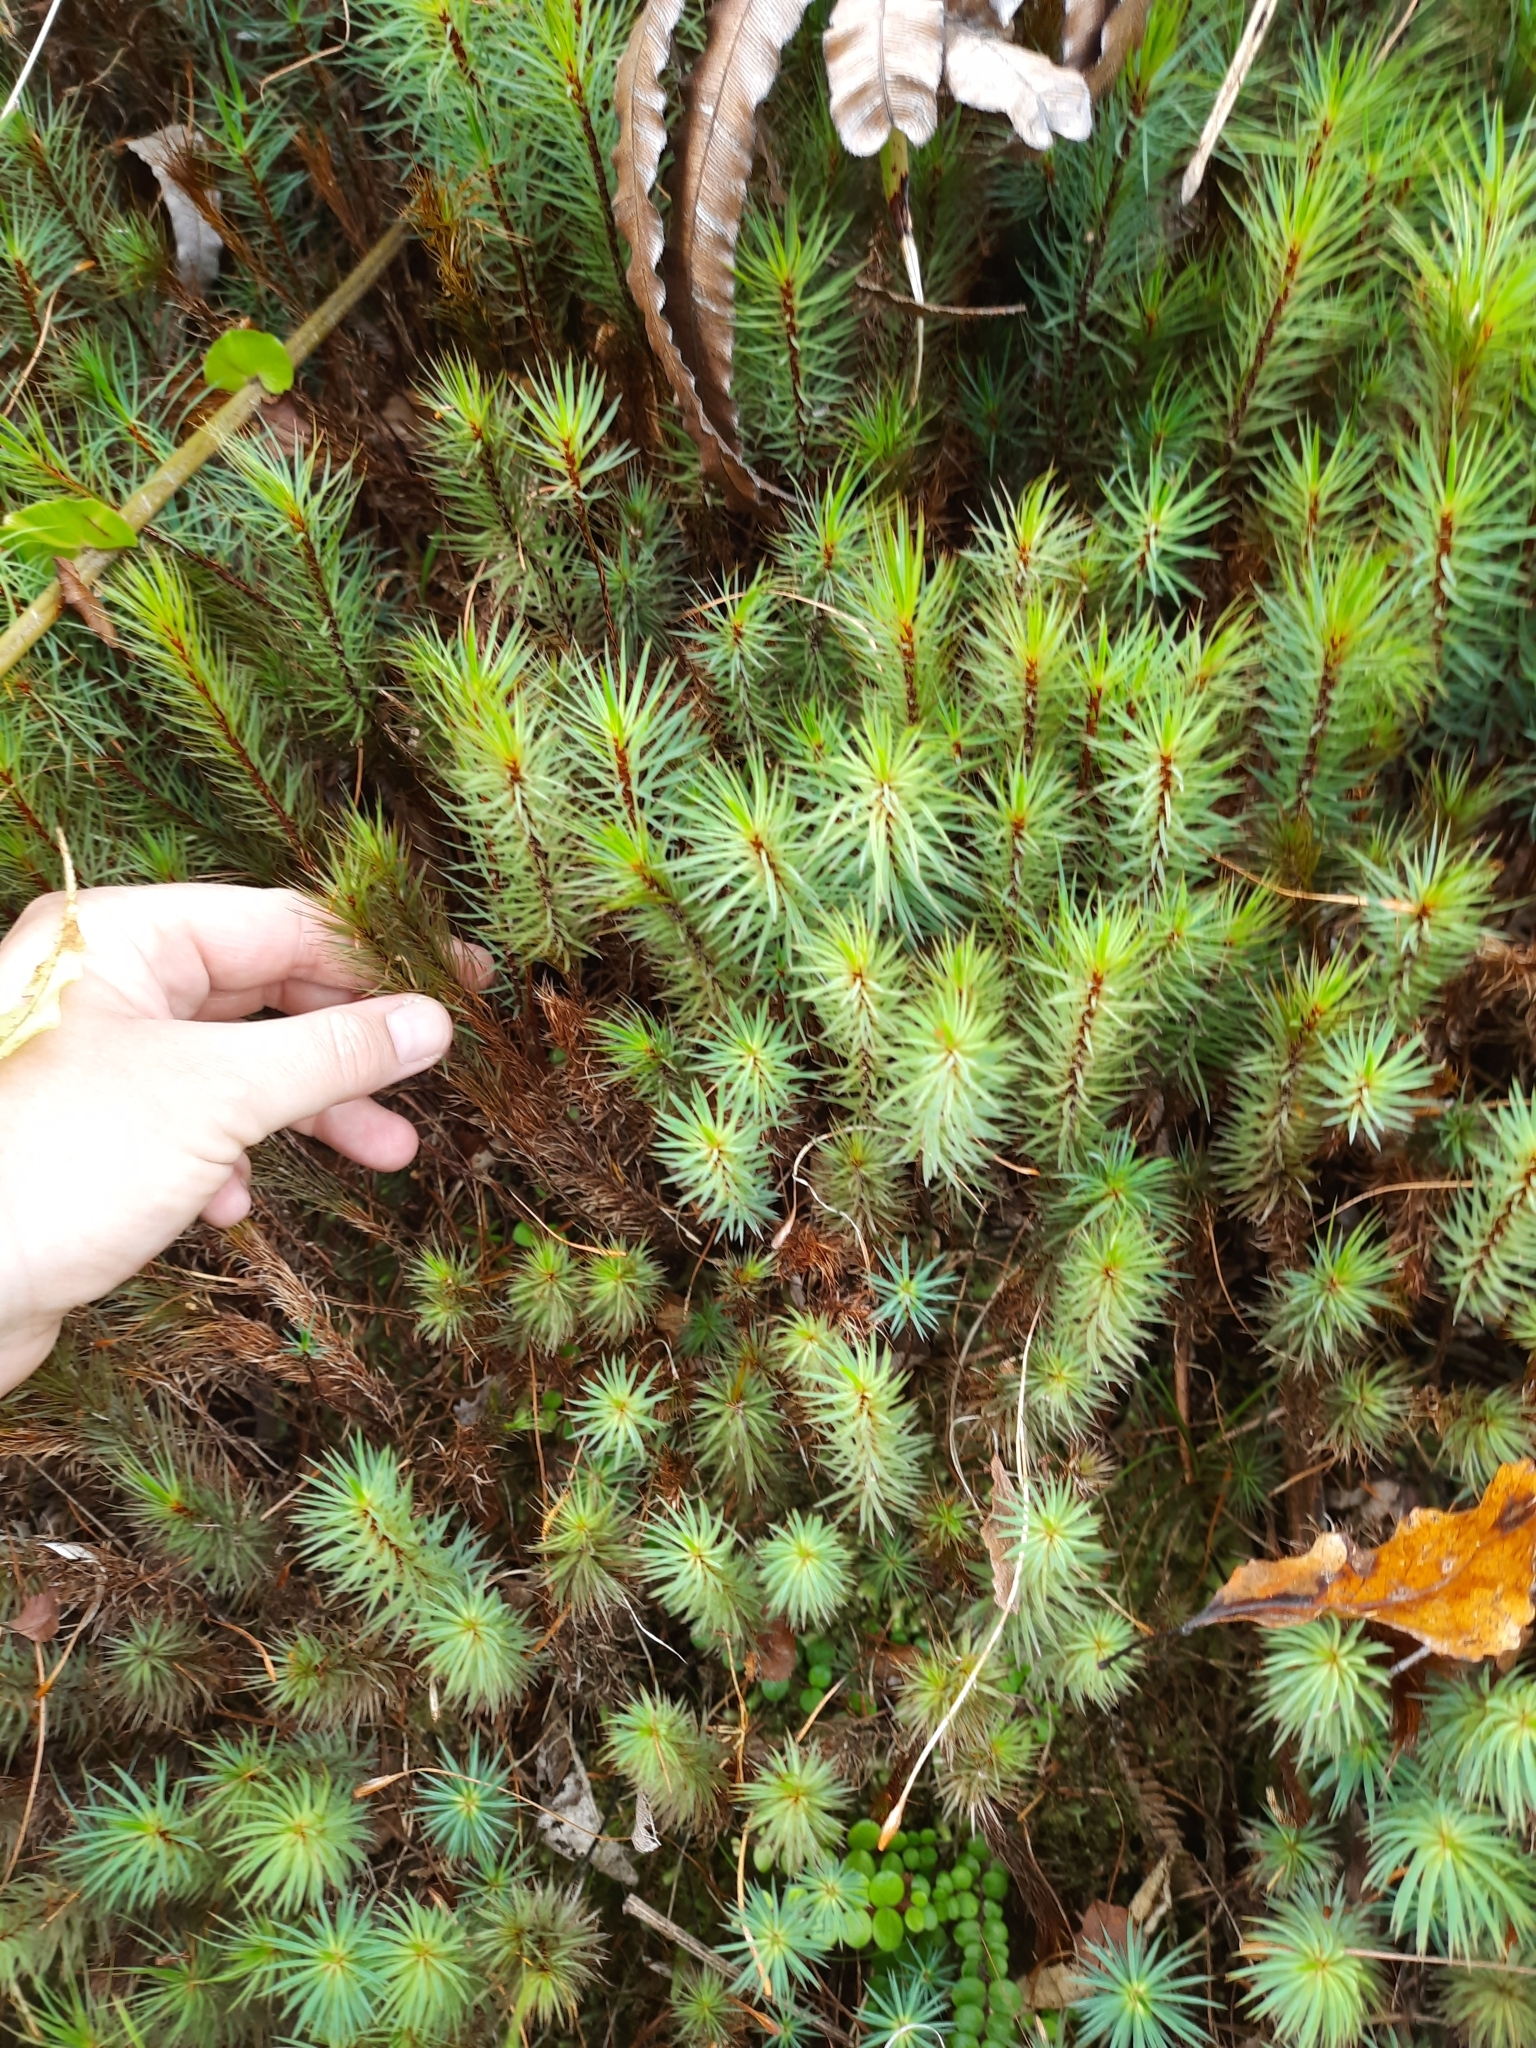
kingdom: Plantae
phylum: Bryophyta
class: Polytrichopsida
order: Polytrichales
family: Polytrichaceae
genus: Dawsonia
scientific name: Dawsonia superba
